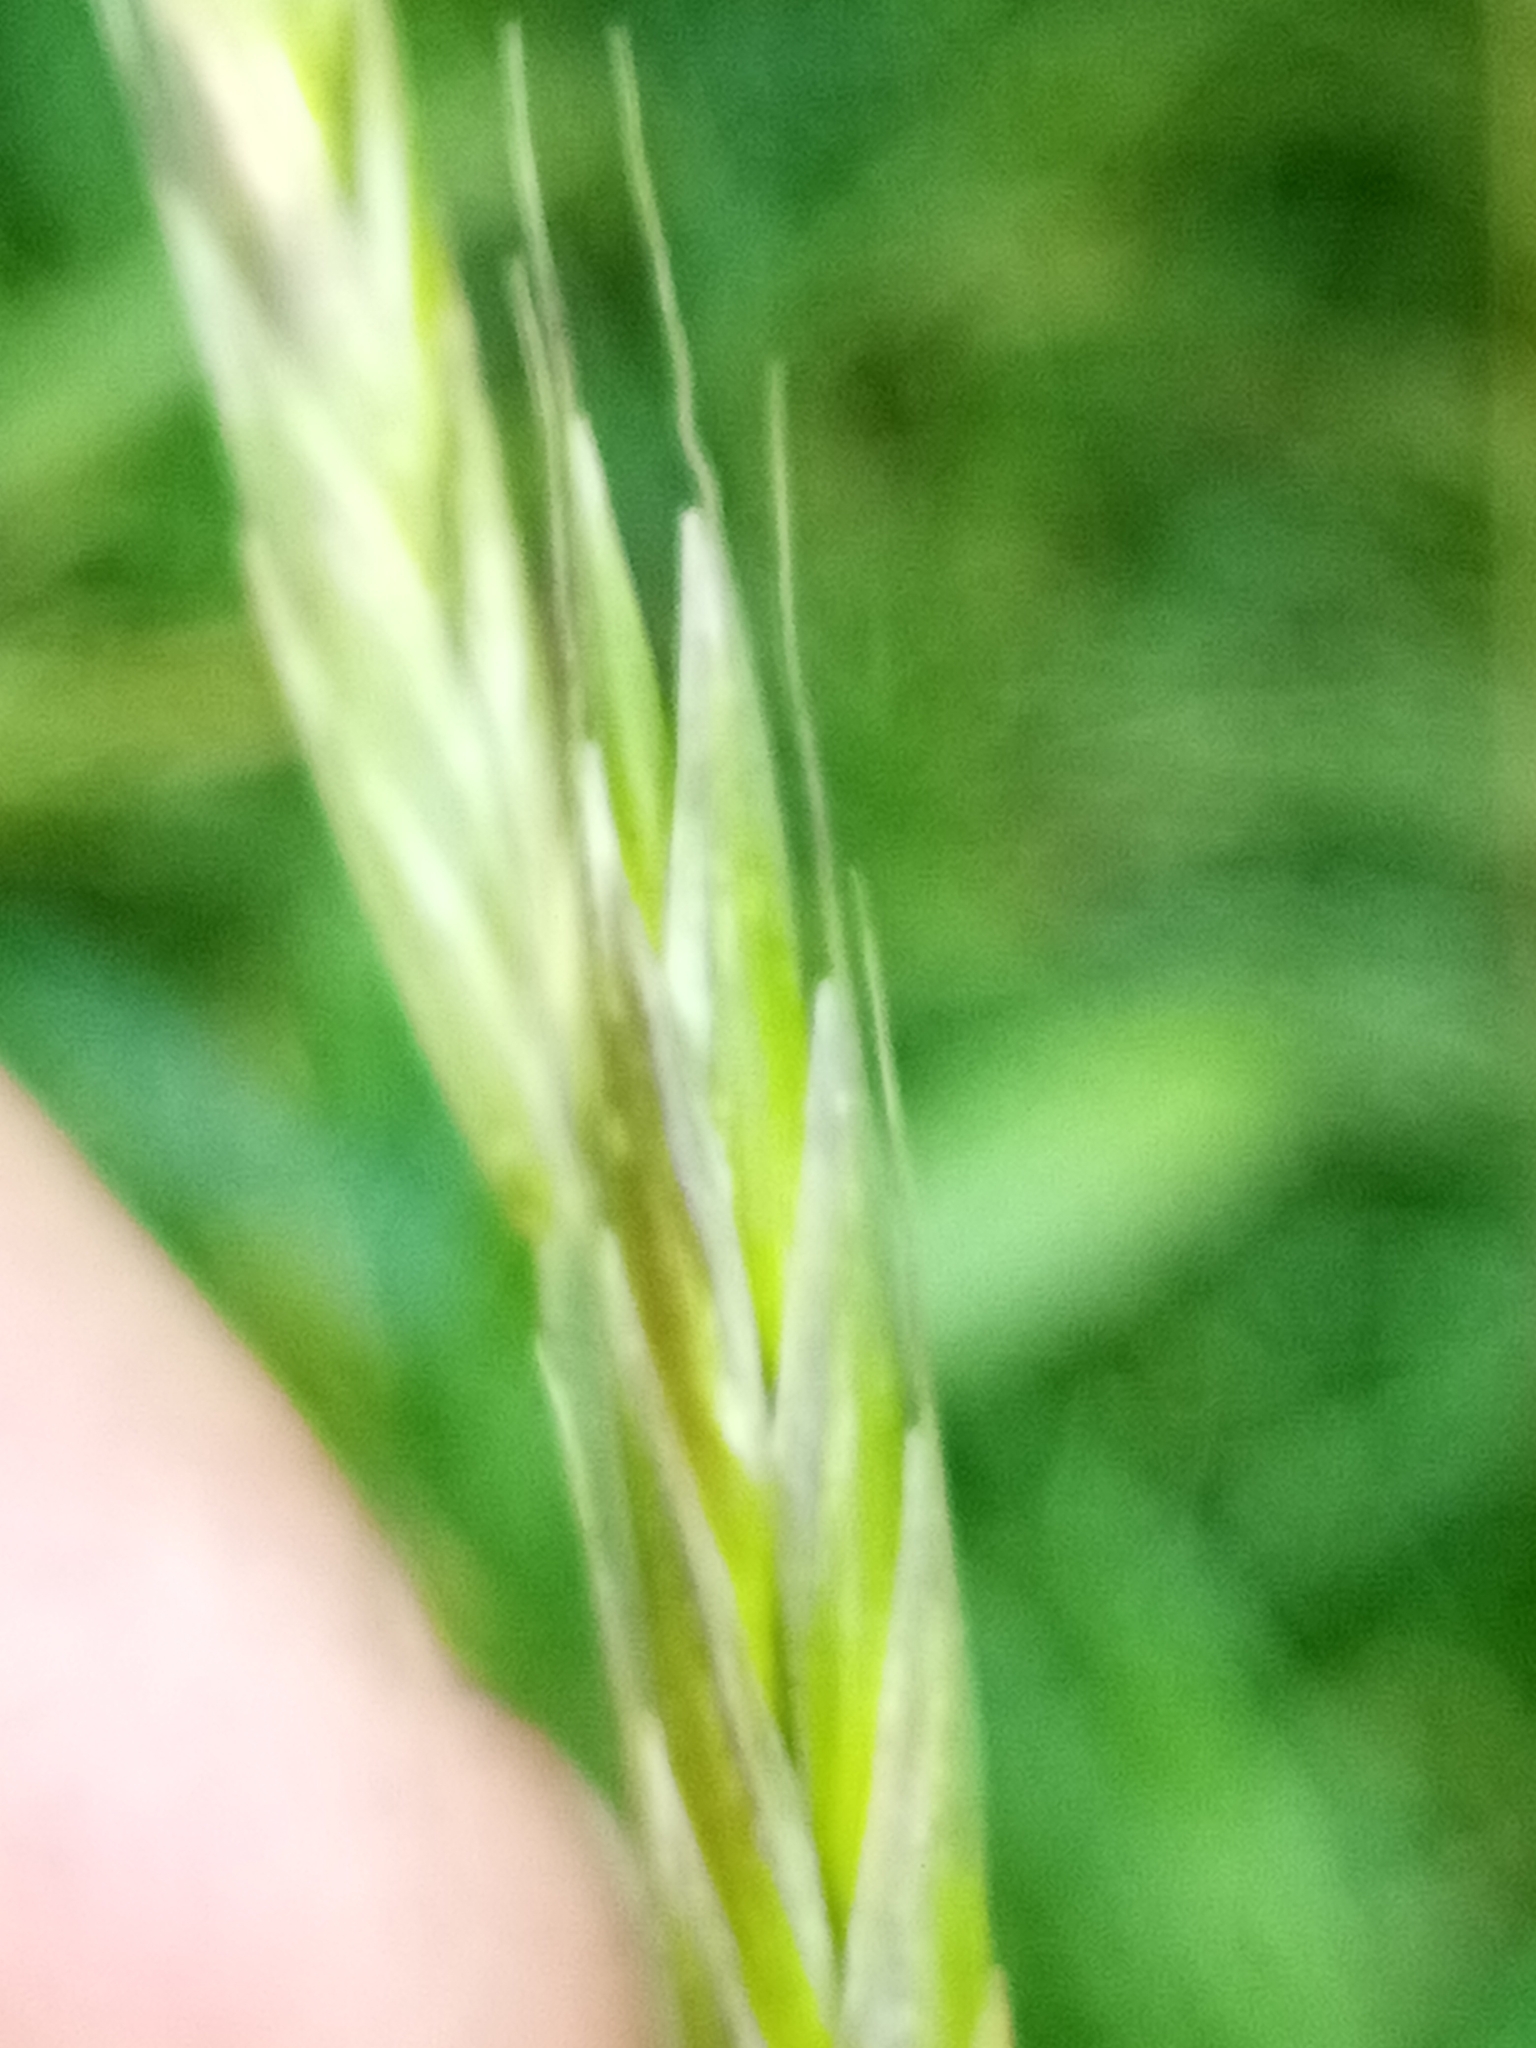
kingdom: Plantae
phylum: Tracheophyta
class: Liliopsida
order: Poales
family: Poaceae
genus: Bromus
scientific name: Bromus sitchensis
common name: Sitka brome
